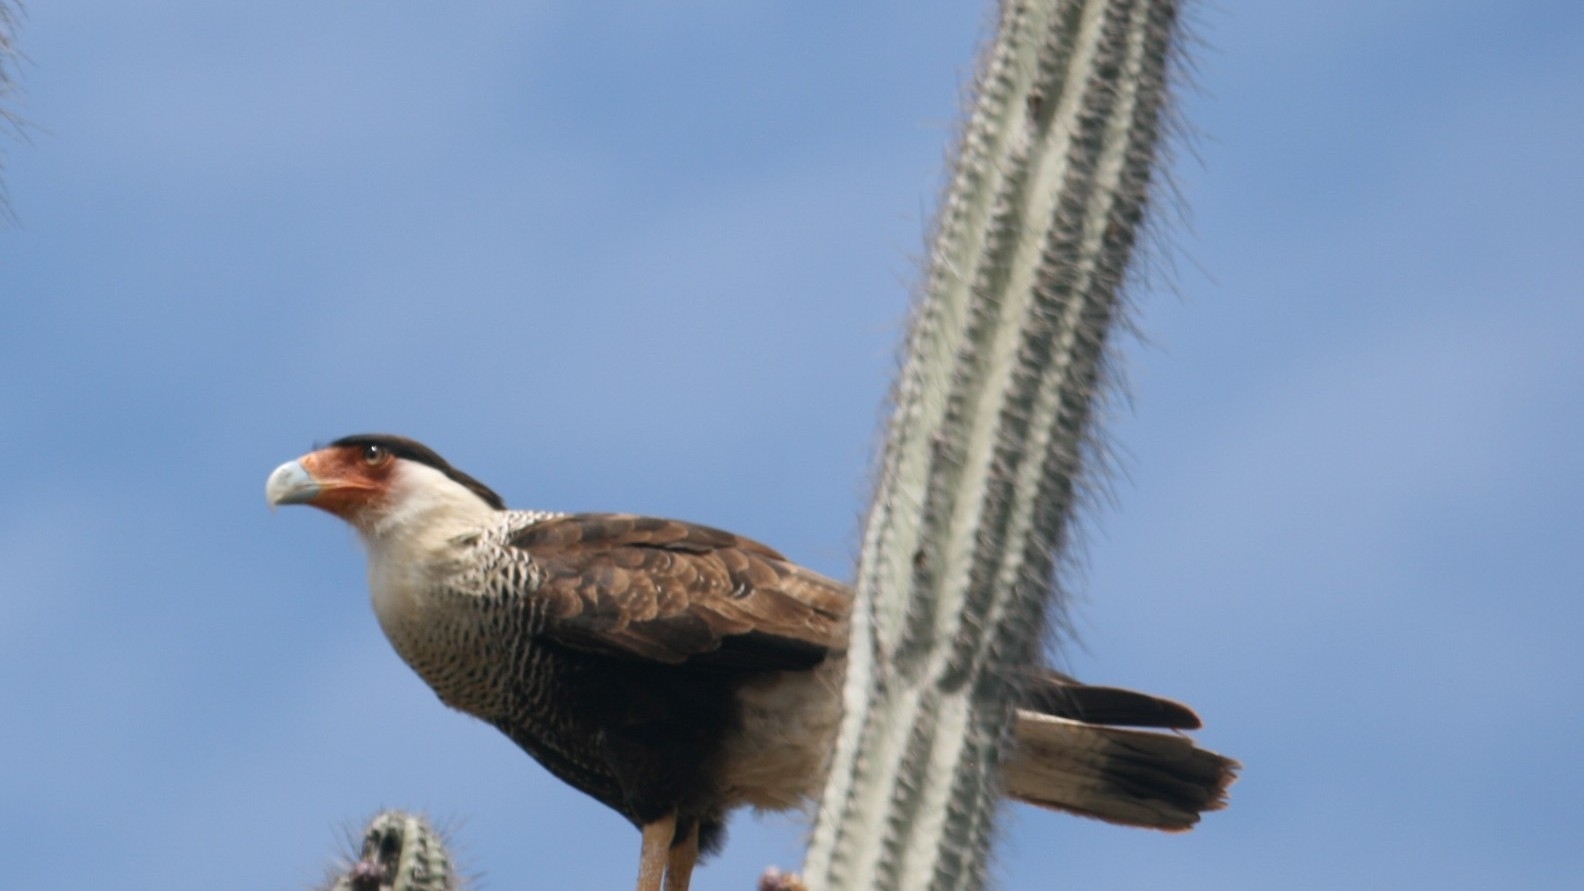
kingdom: Animalia
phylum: Chordata
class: Aves
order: Falconiformes
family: Falconidae
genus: Caracara
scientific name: Caracara plancus
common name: Southern caracara
